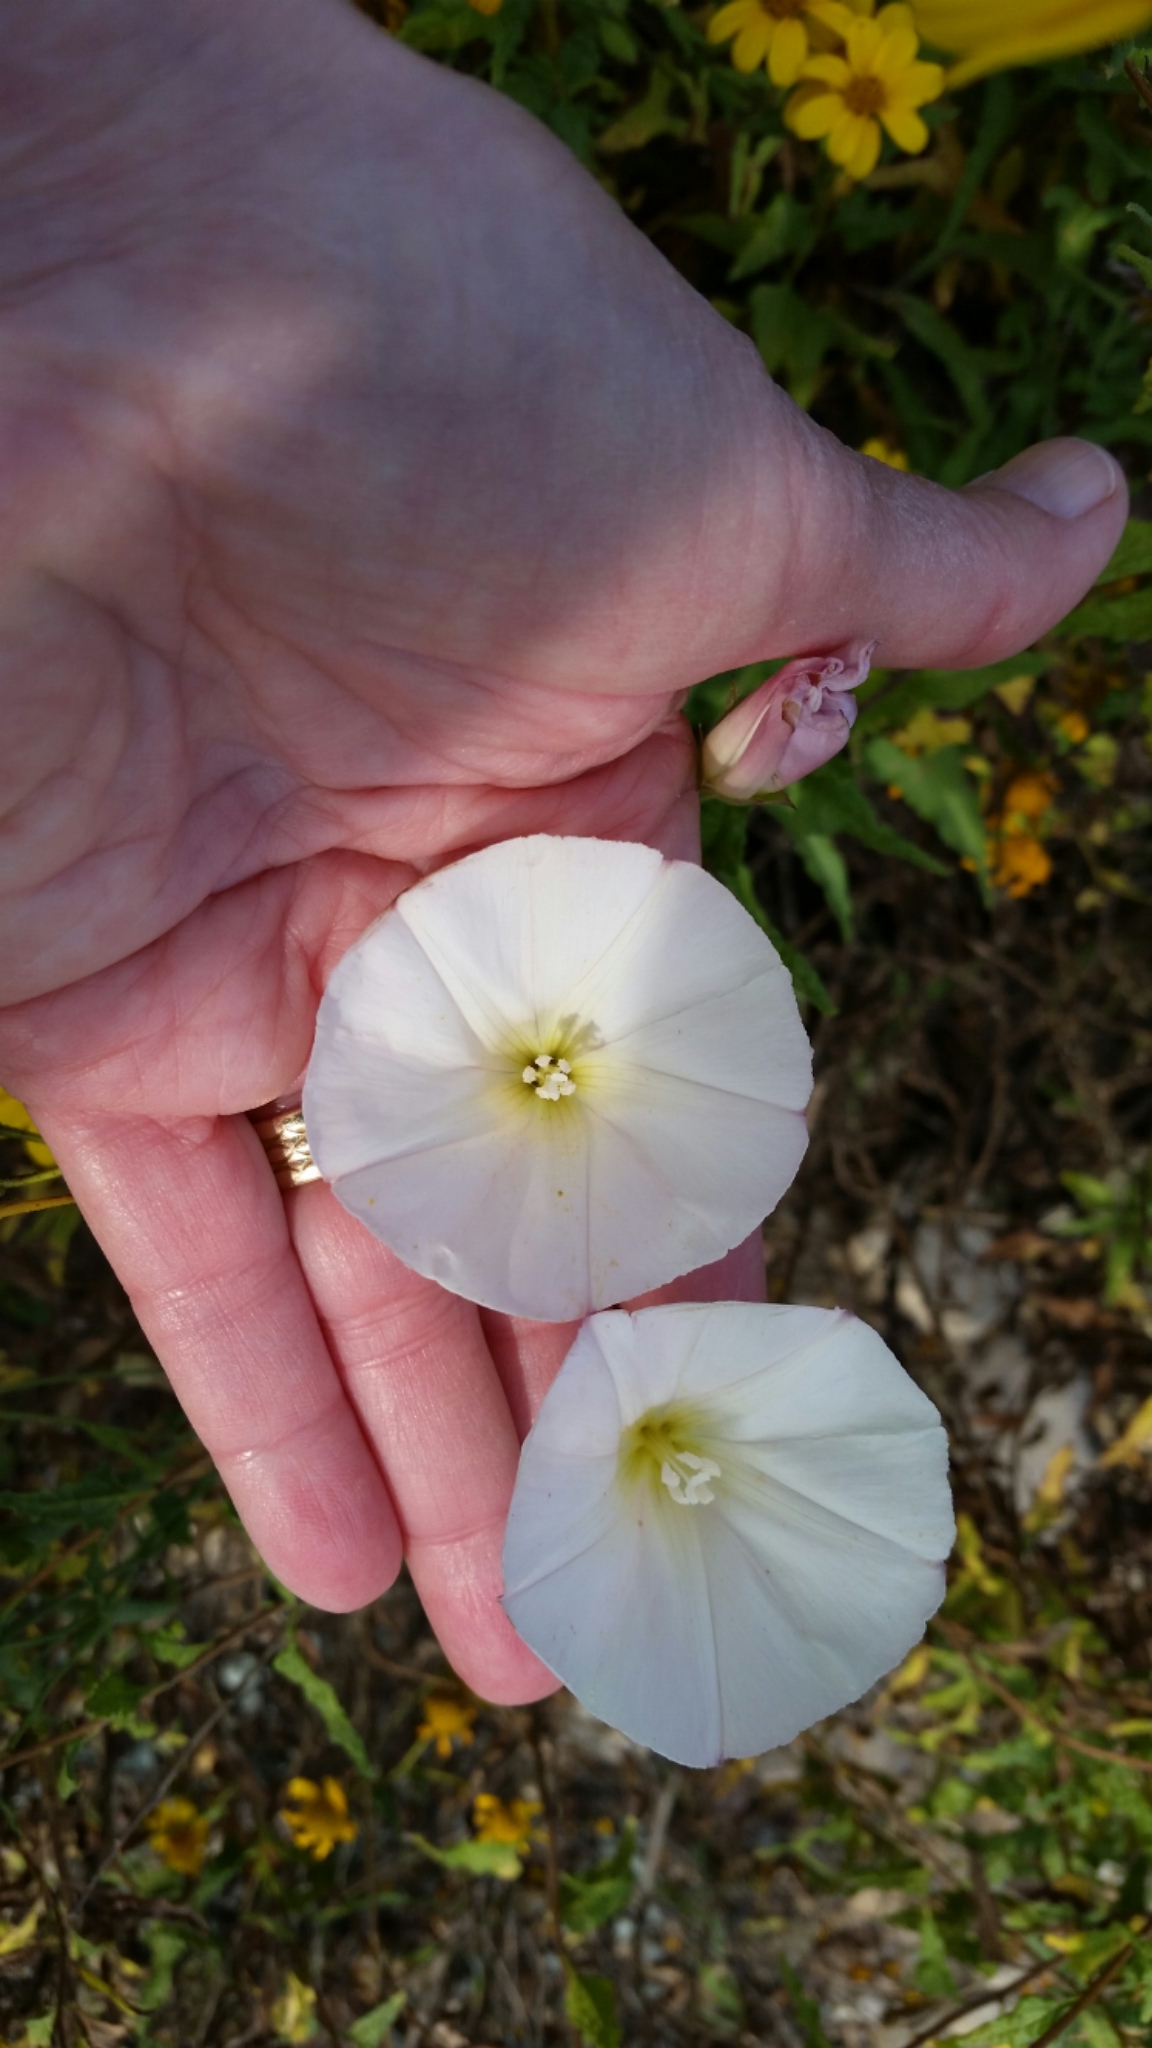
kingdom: Plantae
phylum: Tracheophyta
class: Magnoliopsida
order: Solanales
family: Convolvulaceae
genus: Calystegia
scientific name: Calystegia macrostegia
